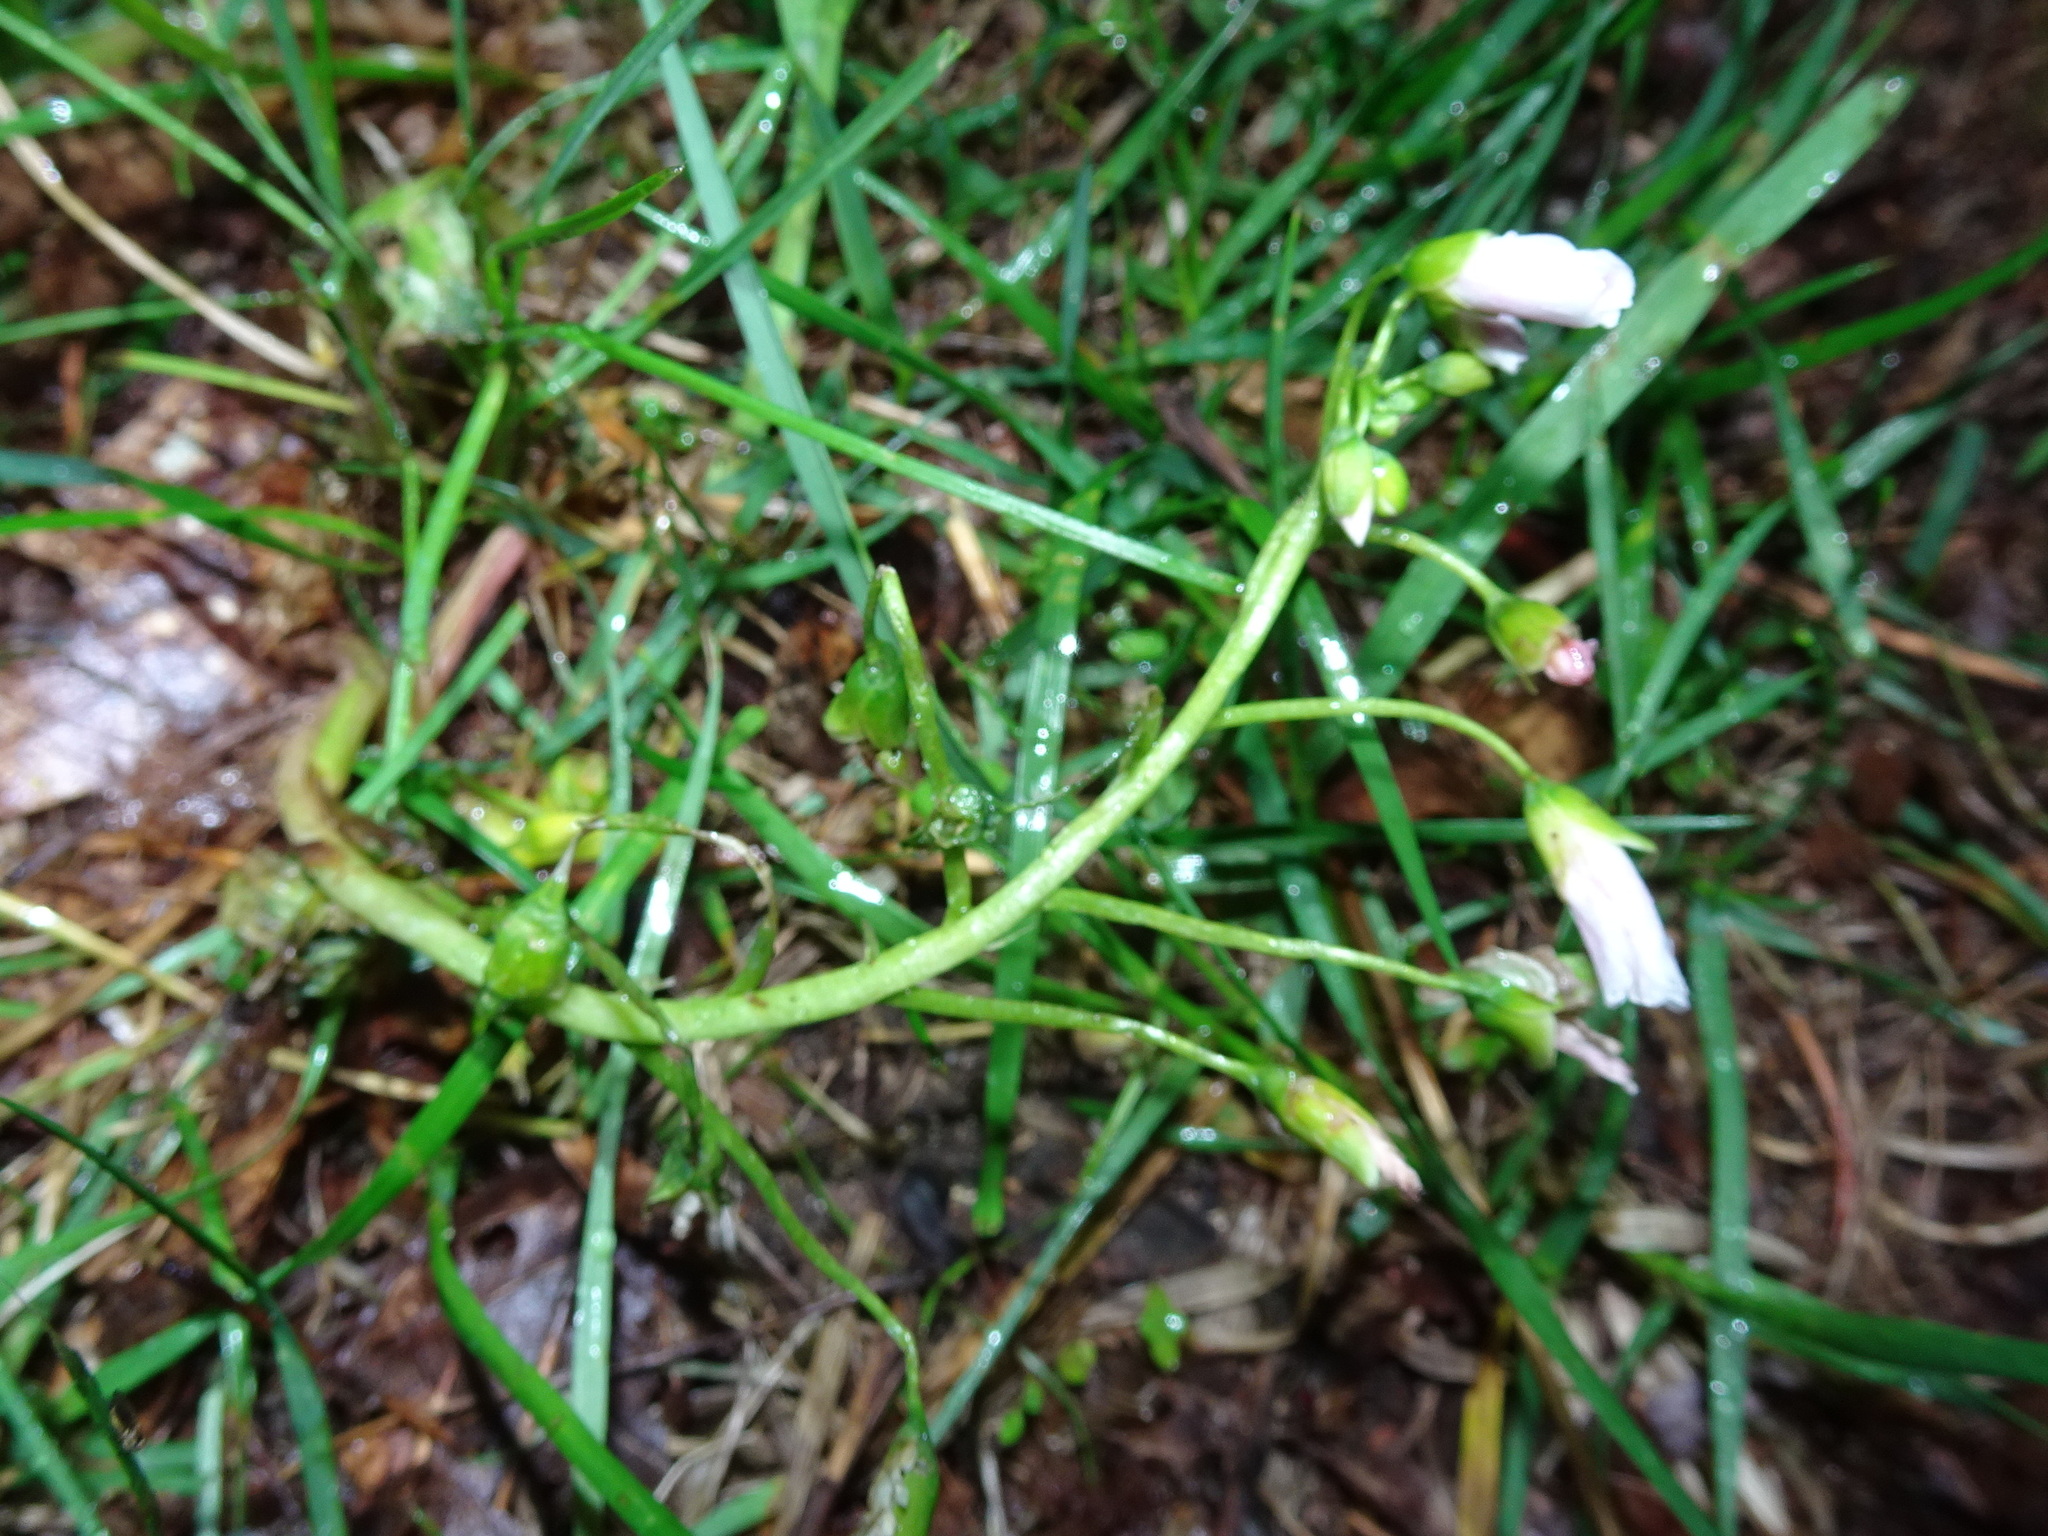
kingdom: Plantae
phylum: Tracheophyta
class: Magnoliopsida
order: Caryophyllales
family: Montiaceae
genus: Claytonia
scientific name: Claytonia virginica
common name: Virginia springbeauty
